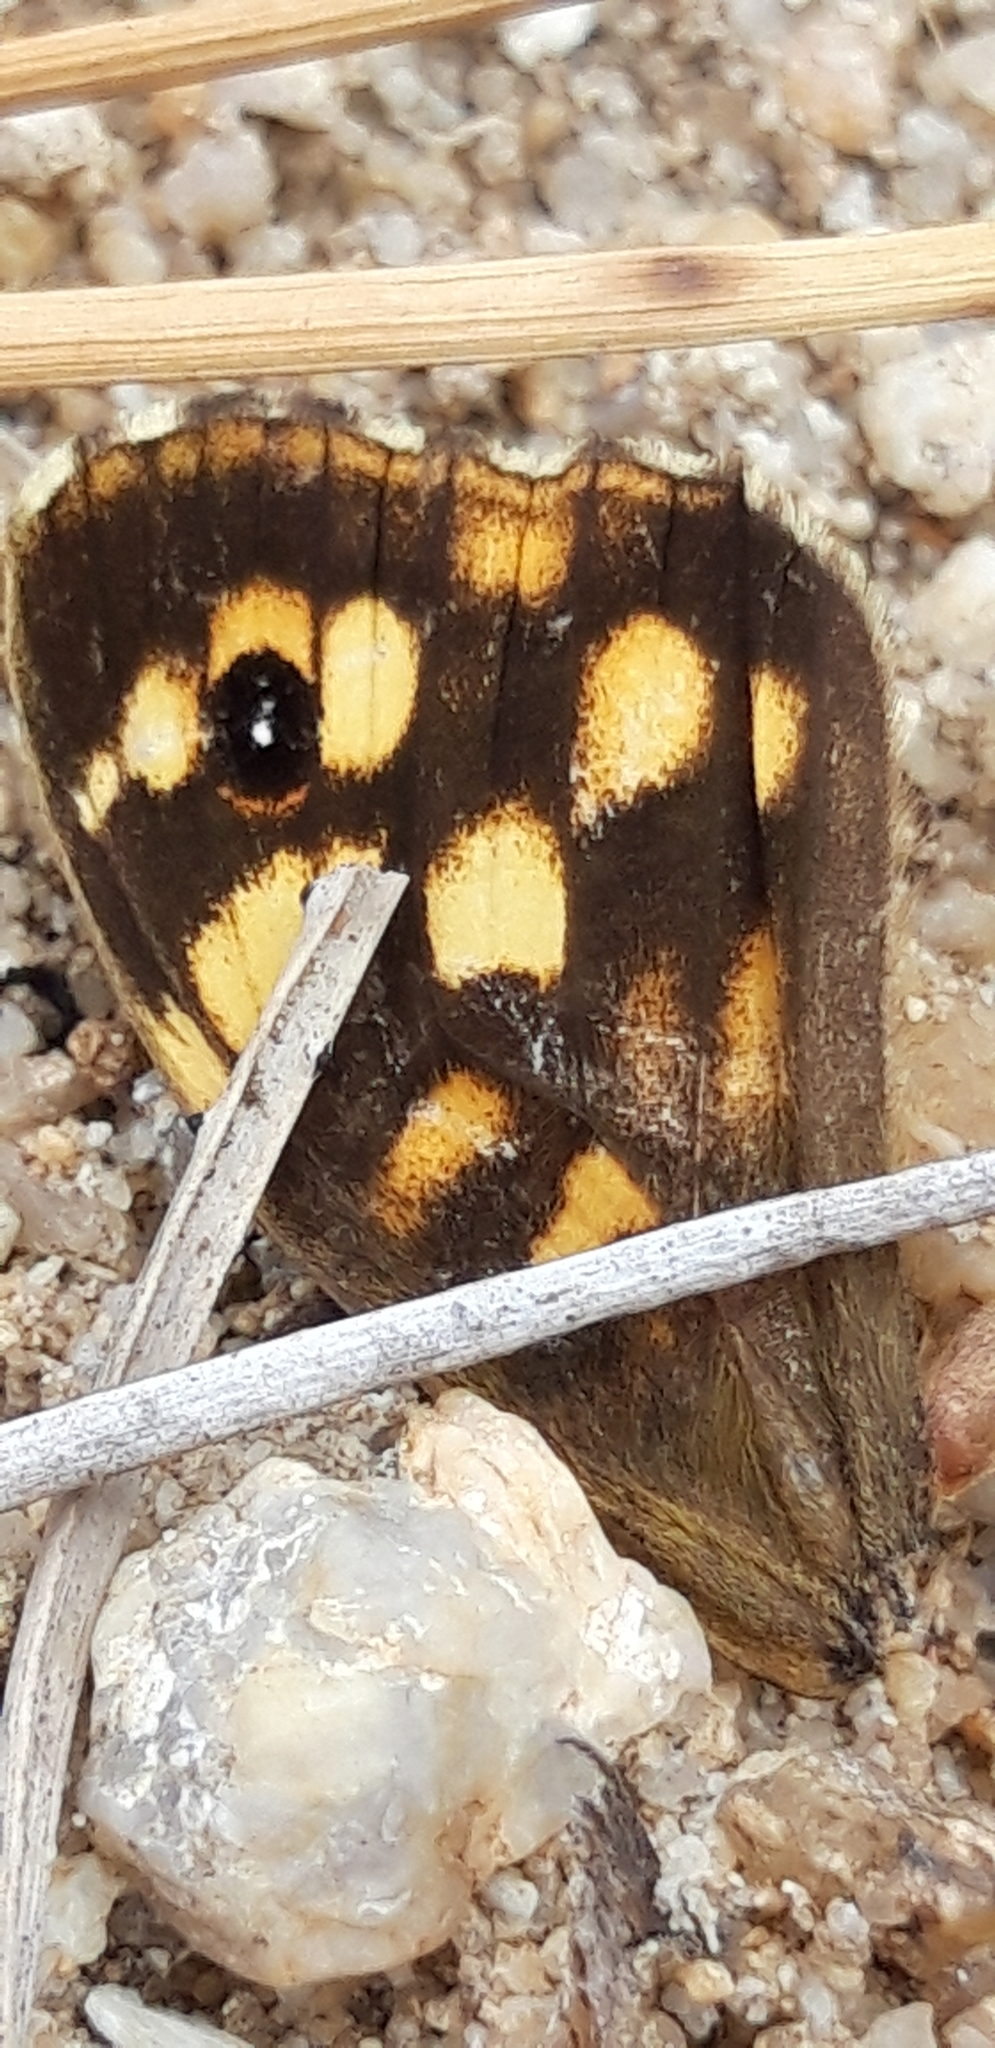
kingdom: Animalia
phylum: Arthropoda
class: Insecta
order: Lepidoptera
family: Nymphalidae
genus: Pararge
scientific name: Pararge aegeria
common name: Speckled wood
